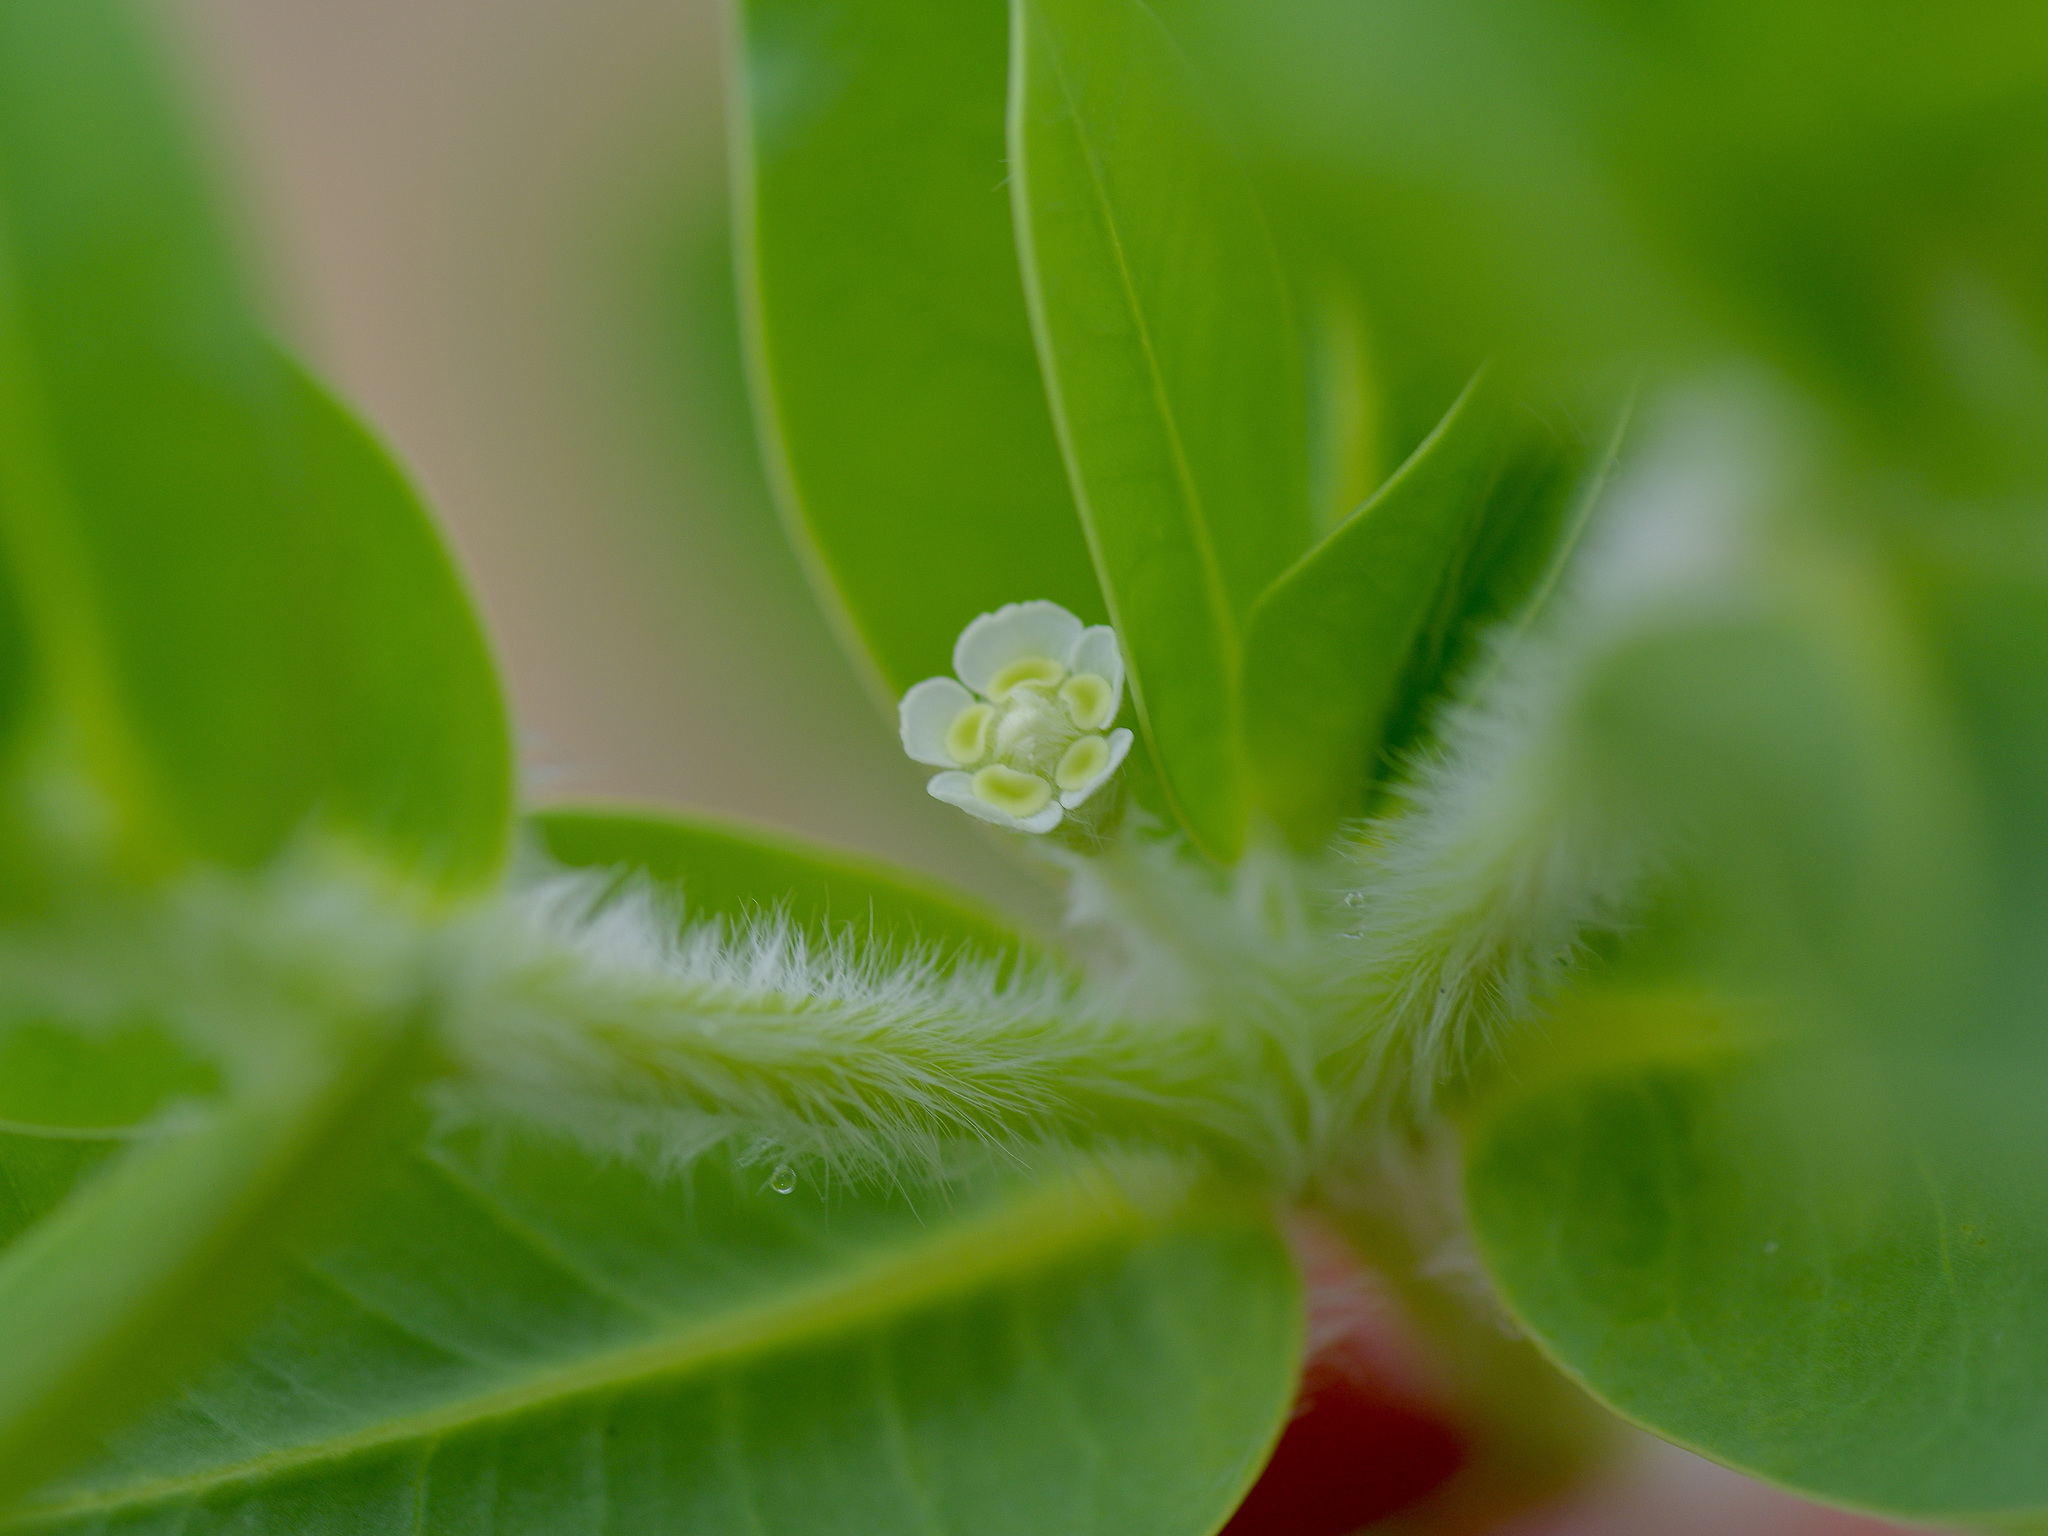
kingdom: Plantae
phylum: Tracheophyta
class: Magnoliopsida
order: Malpighiales
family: Euphorbiaceae
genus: Euphorbia
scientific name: Euphorbia marginata
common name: Ghostweed
